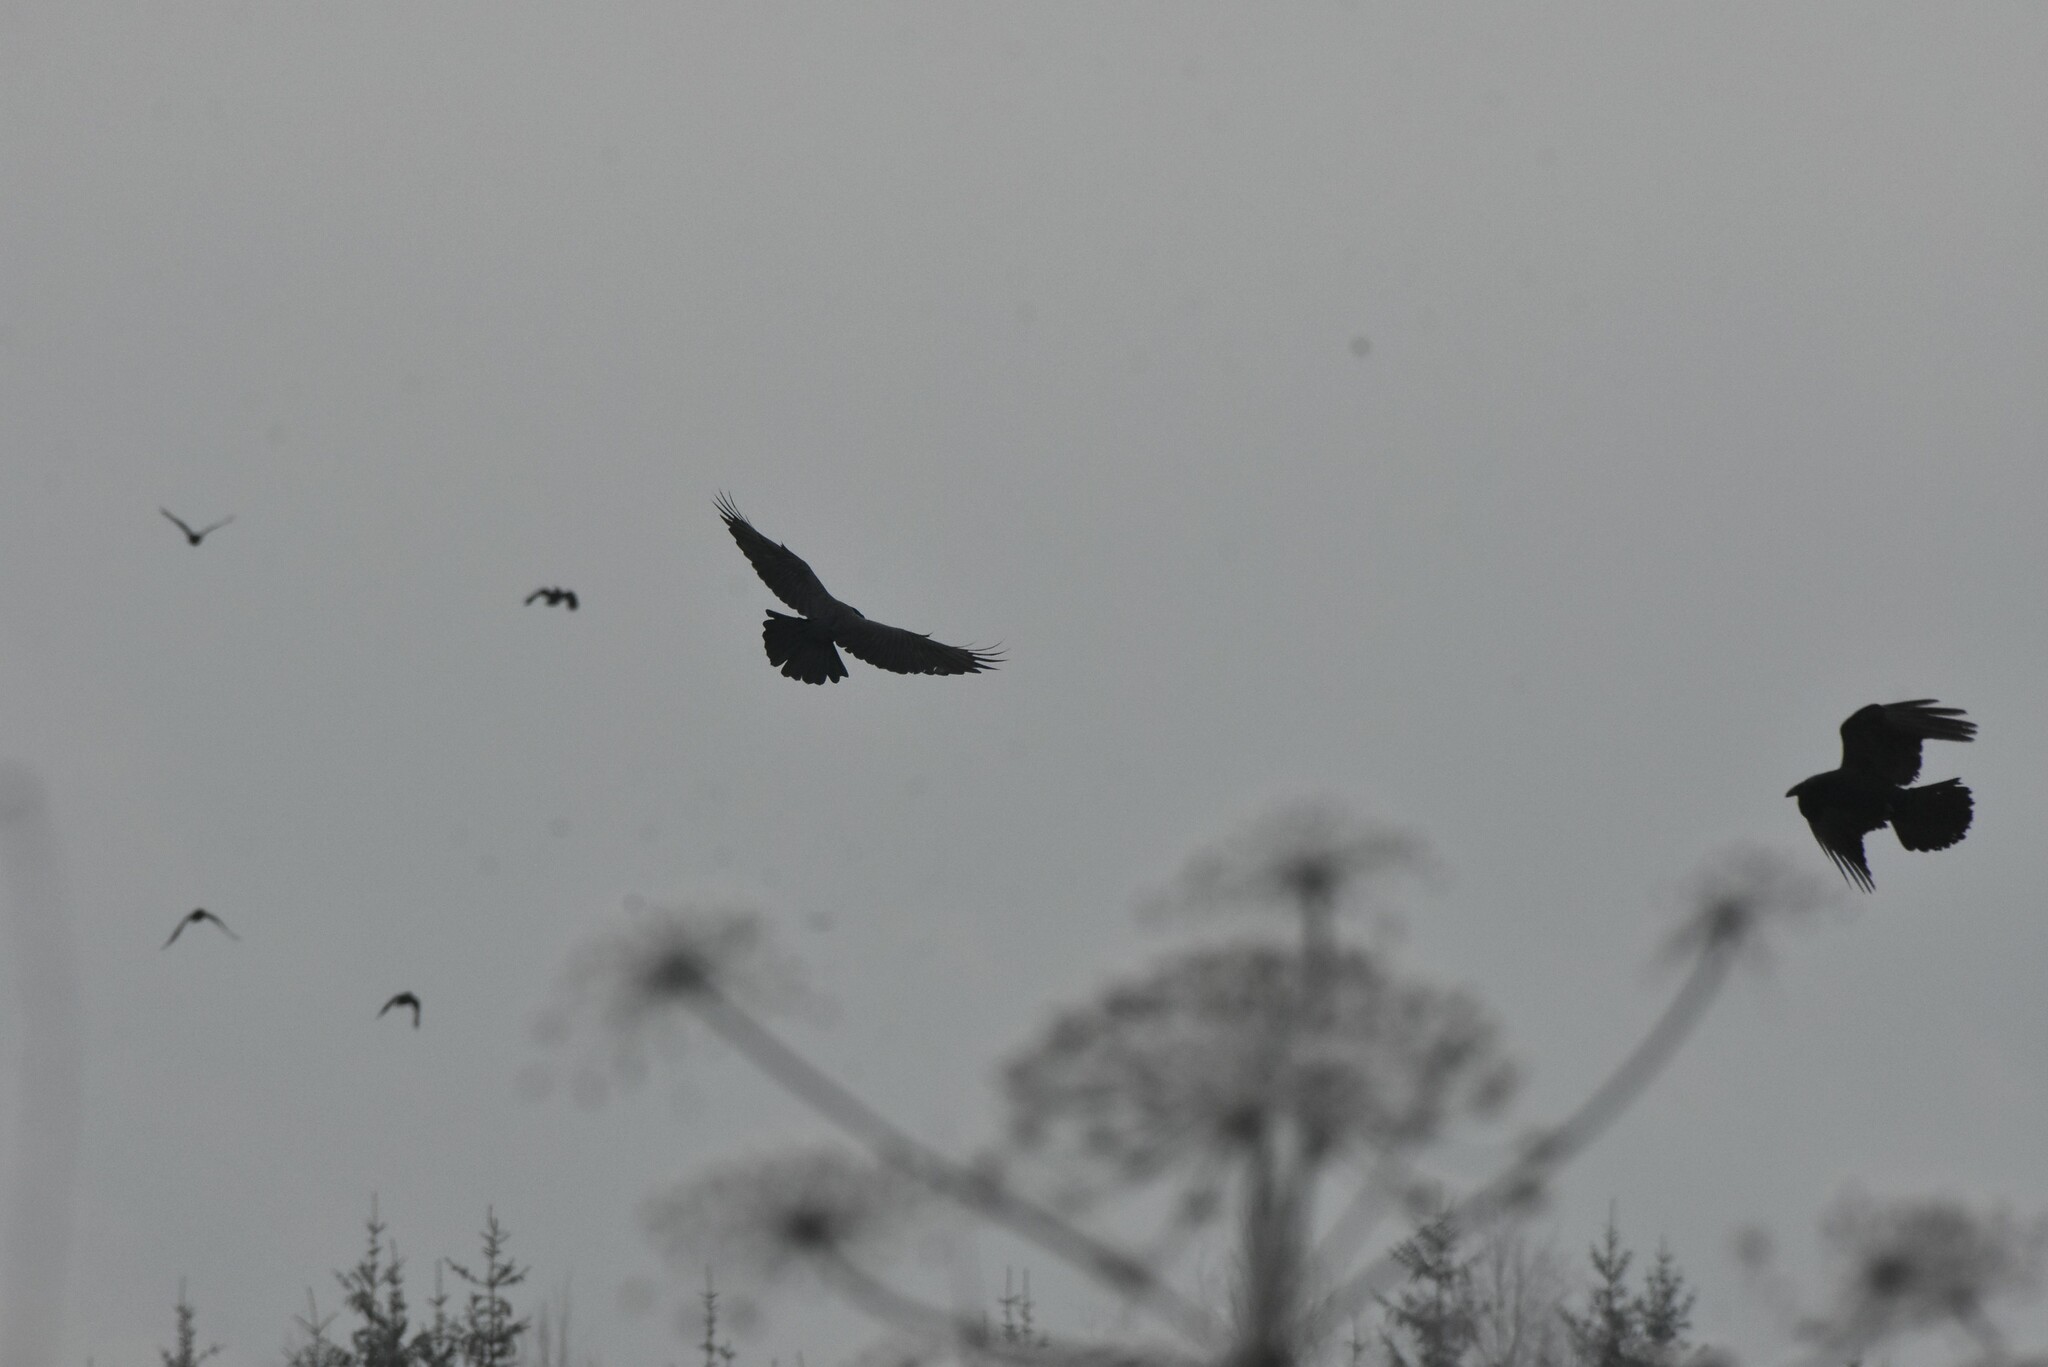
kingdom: Animalia
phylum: Chordata
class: Aves
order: Passeriformes
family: Corvidae
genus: Corvus
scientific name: Corvus corax
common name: Common raven
